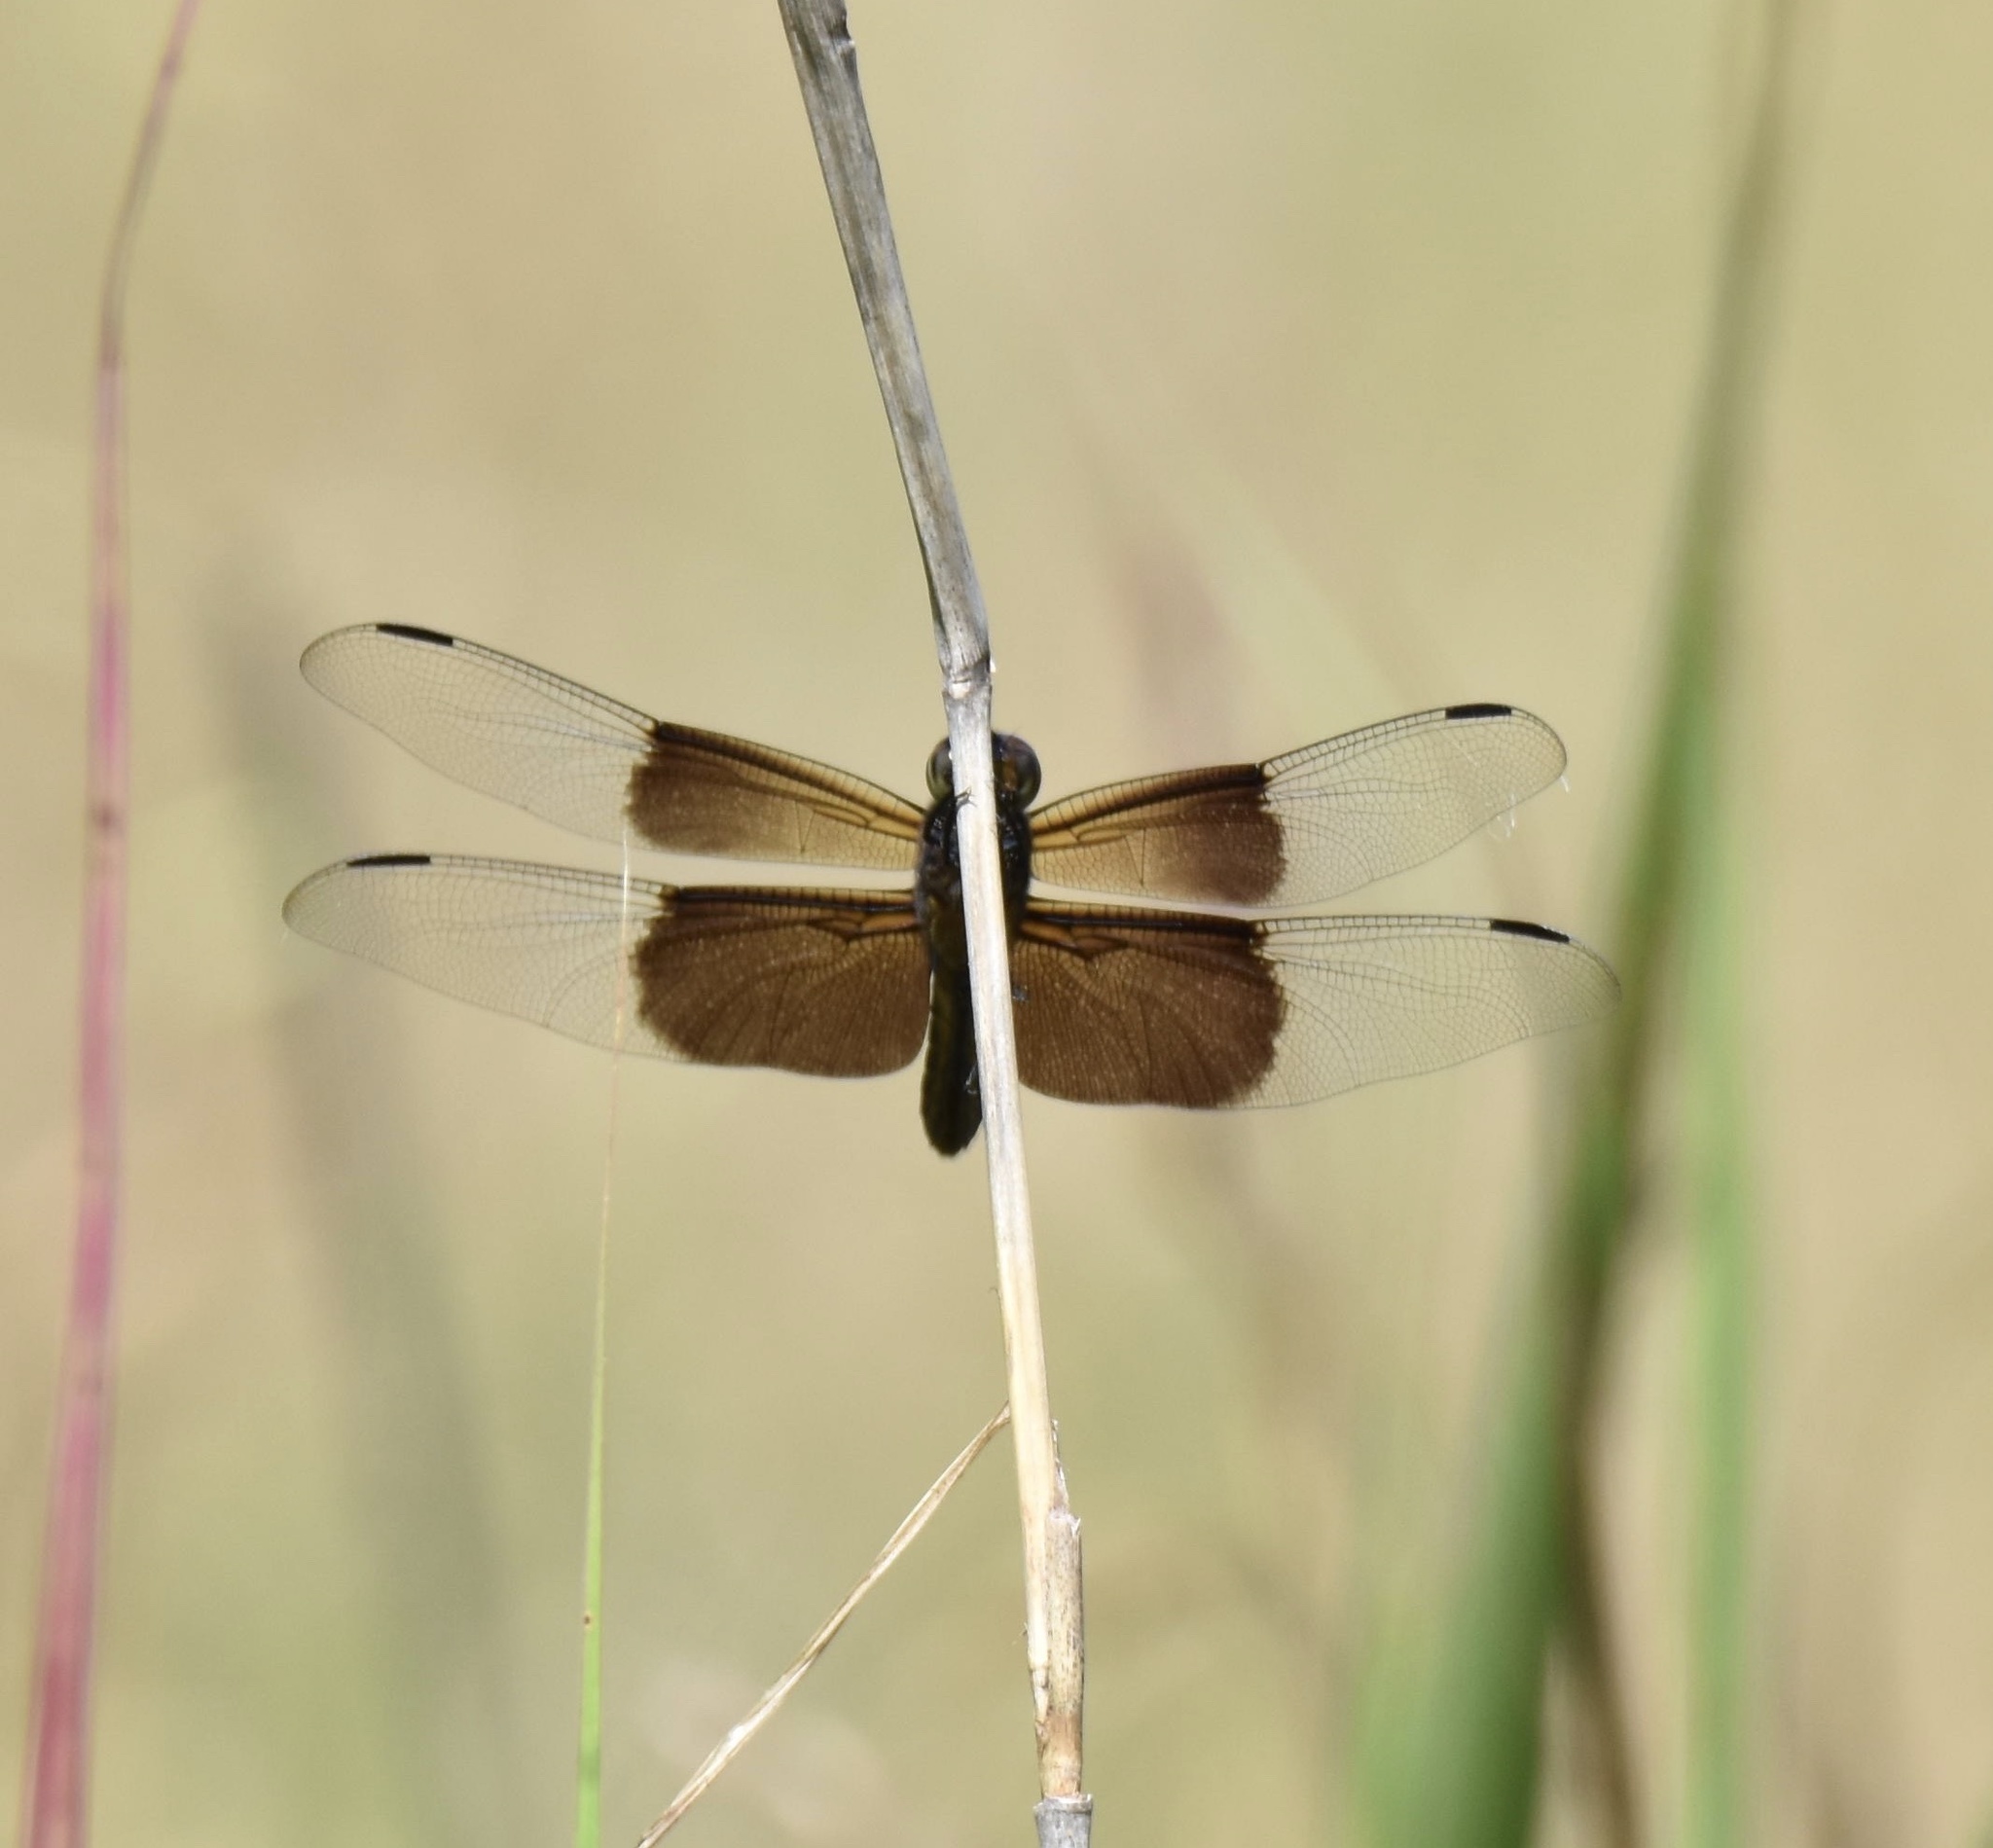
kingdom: Animalia
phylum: Arthropoda
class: Insecta
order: Odonata
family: Libellulidae
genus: Libellula
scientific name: Libellula luctuosa
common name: Widow skimmer
